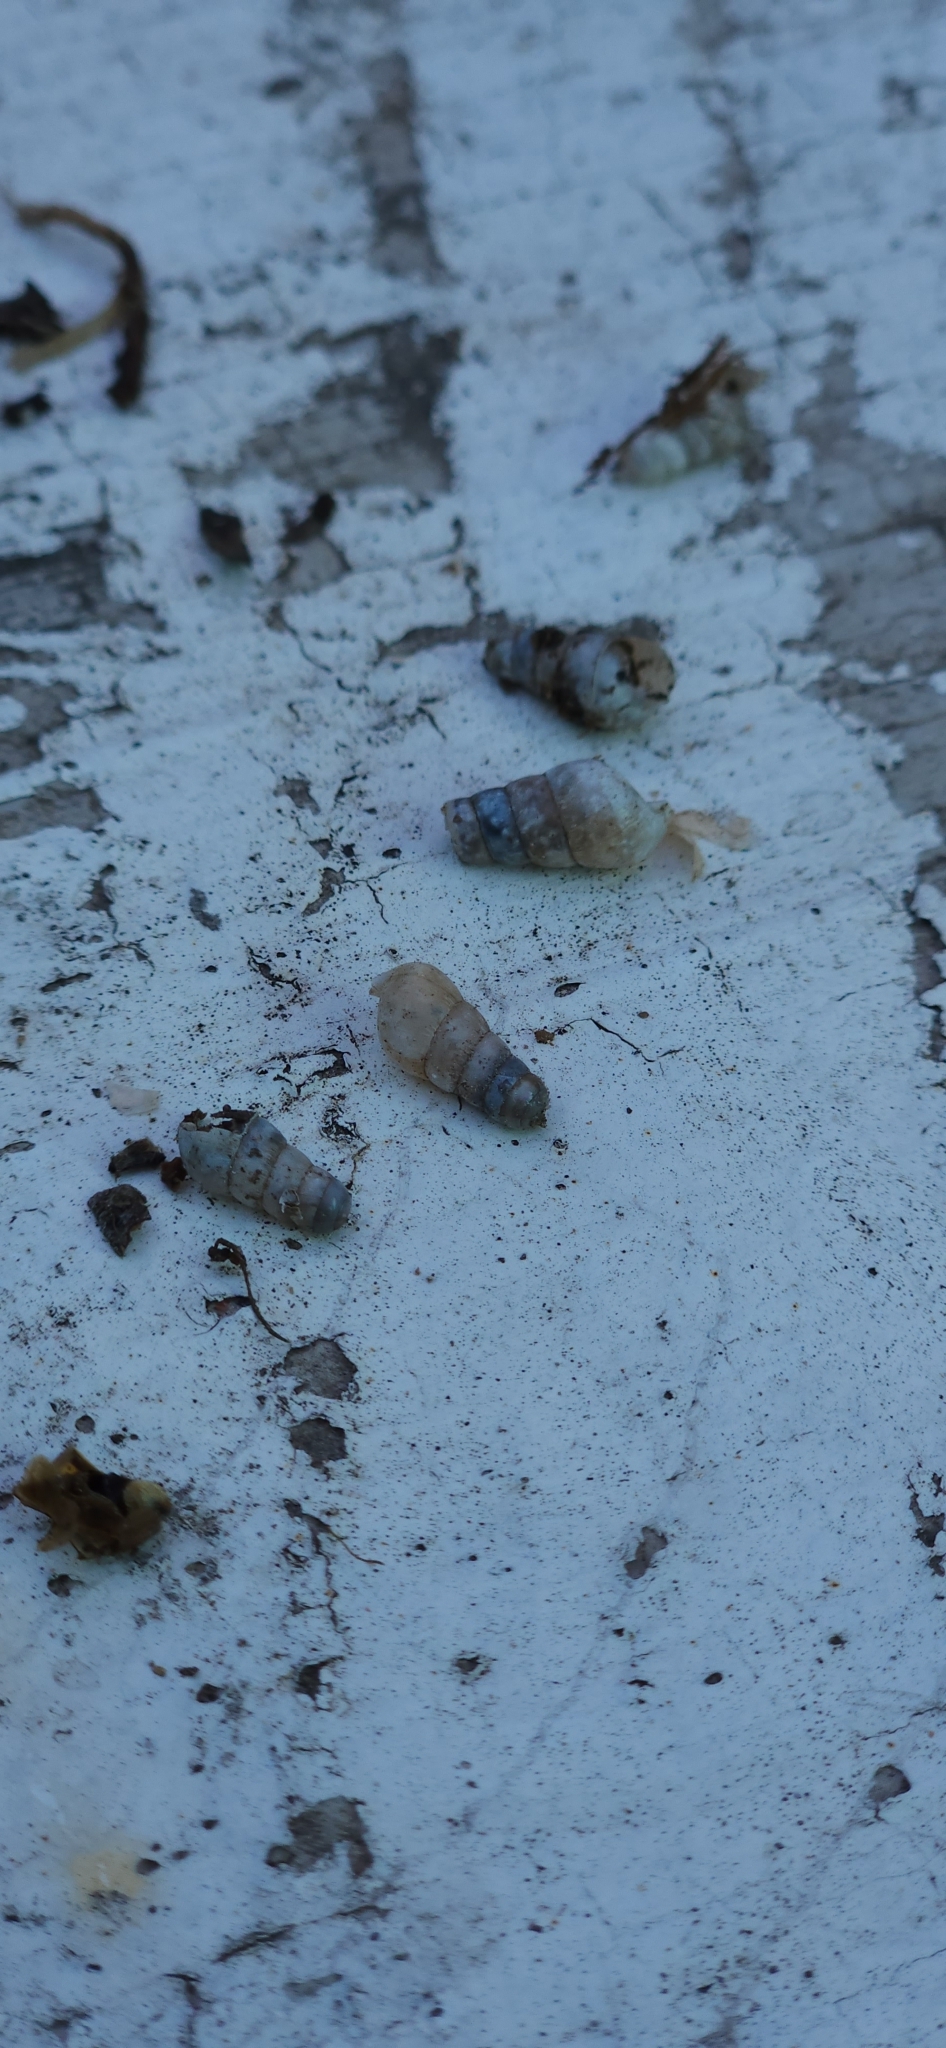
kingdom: Animalia
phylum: Mollusca
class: Gastropoda
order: Stylommatophora
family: Achatinidae
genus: Rumina
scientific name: Rumina decollata
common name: Decollate snail
